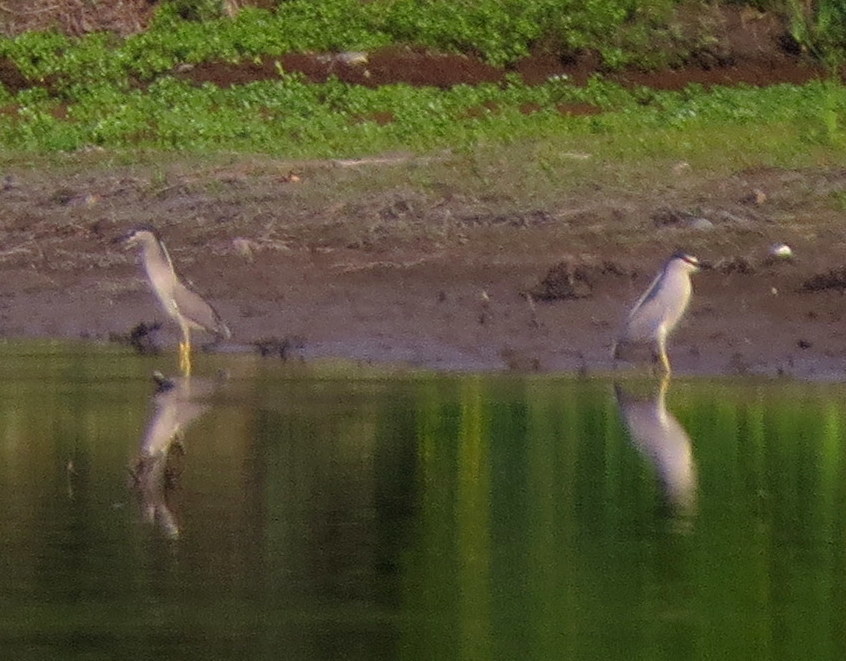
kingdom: Animalia
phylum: Chordata
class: Aves
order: Pelecaniformes
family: Ardeidae
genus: Nycticorax
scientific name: Nycticorax nycticorax
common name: Black-crowned night heron
